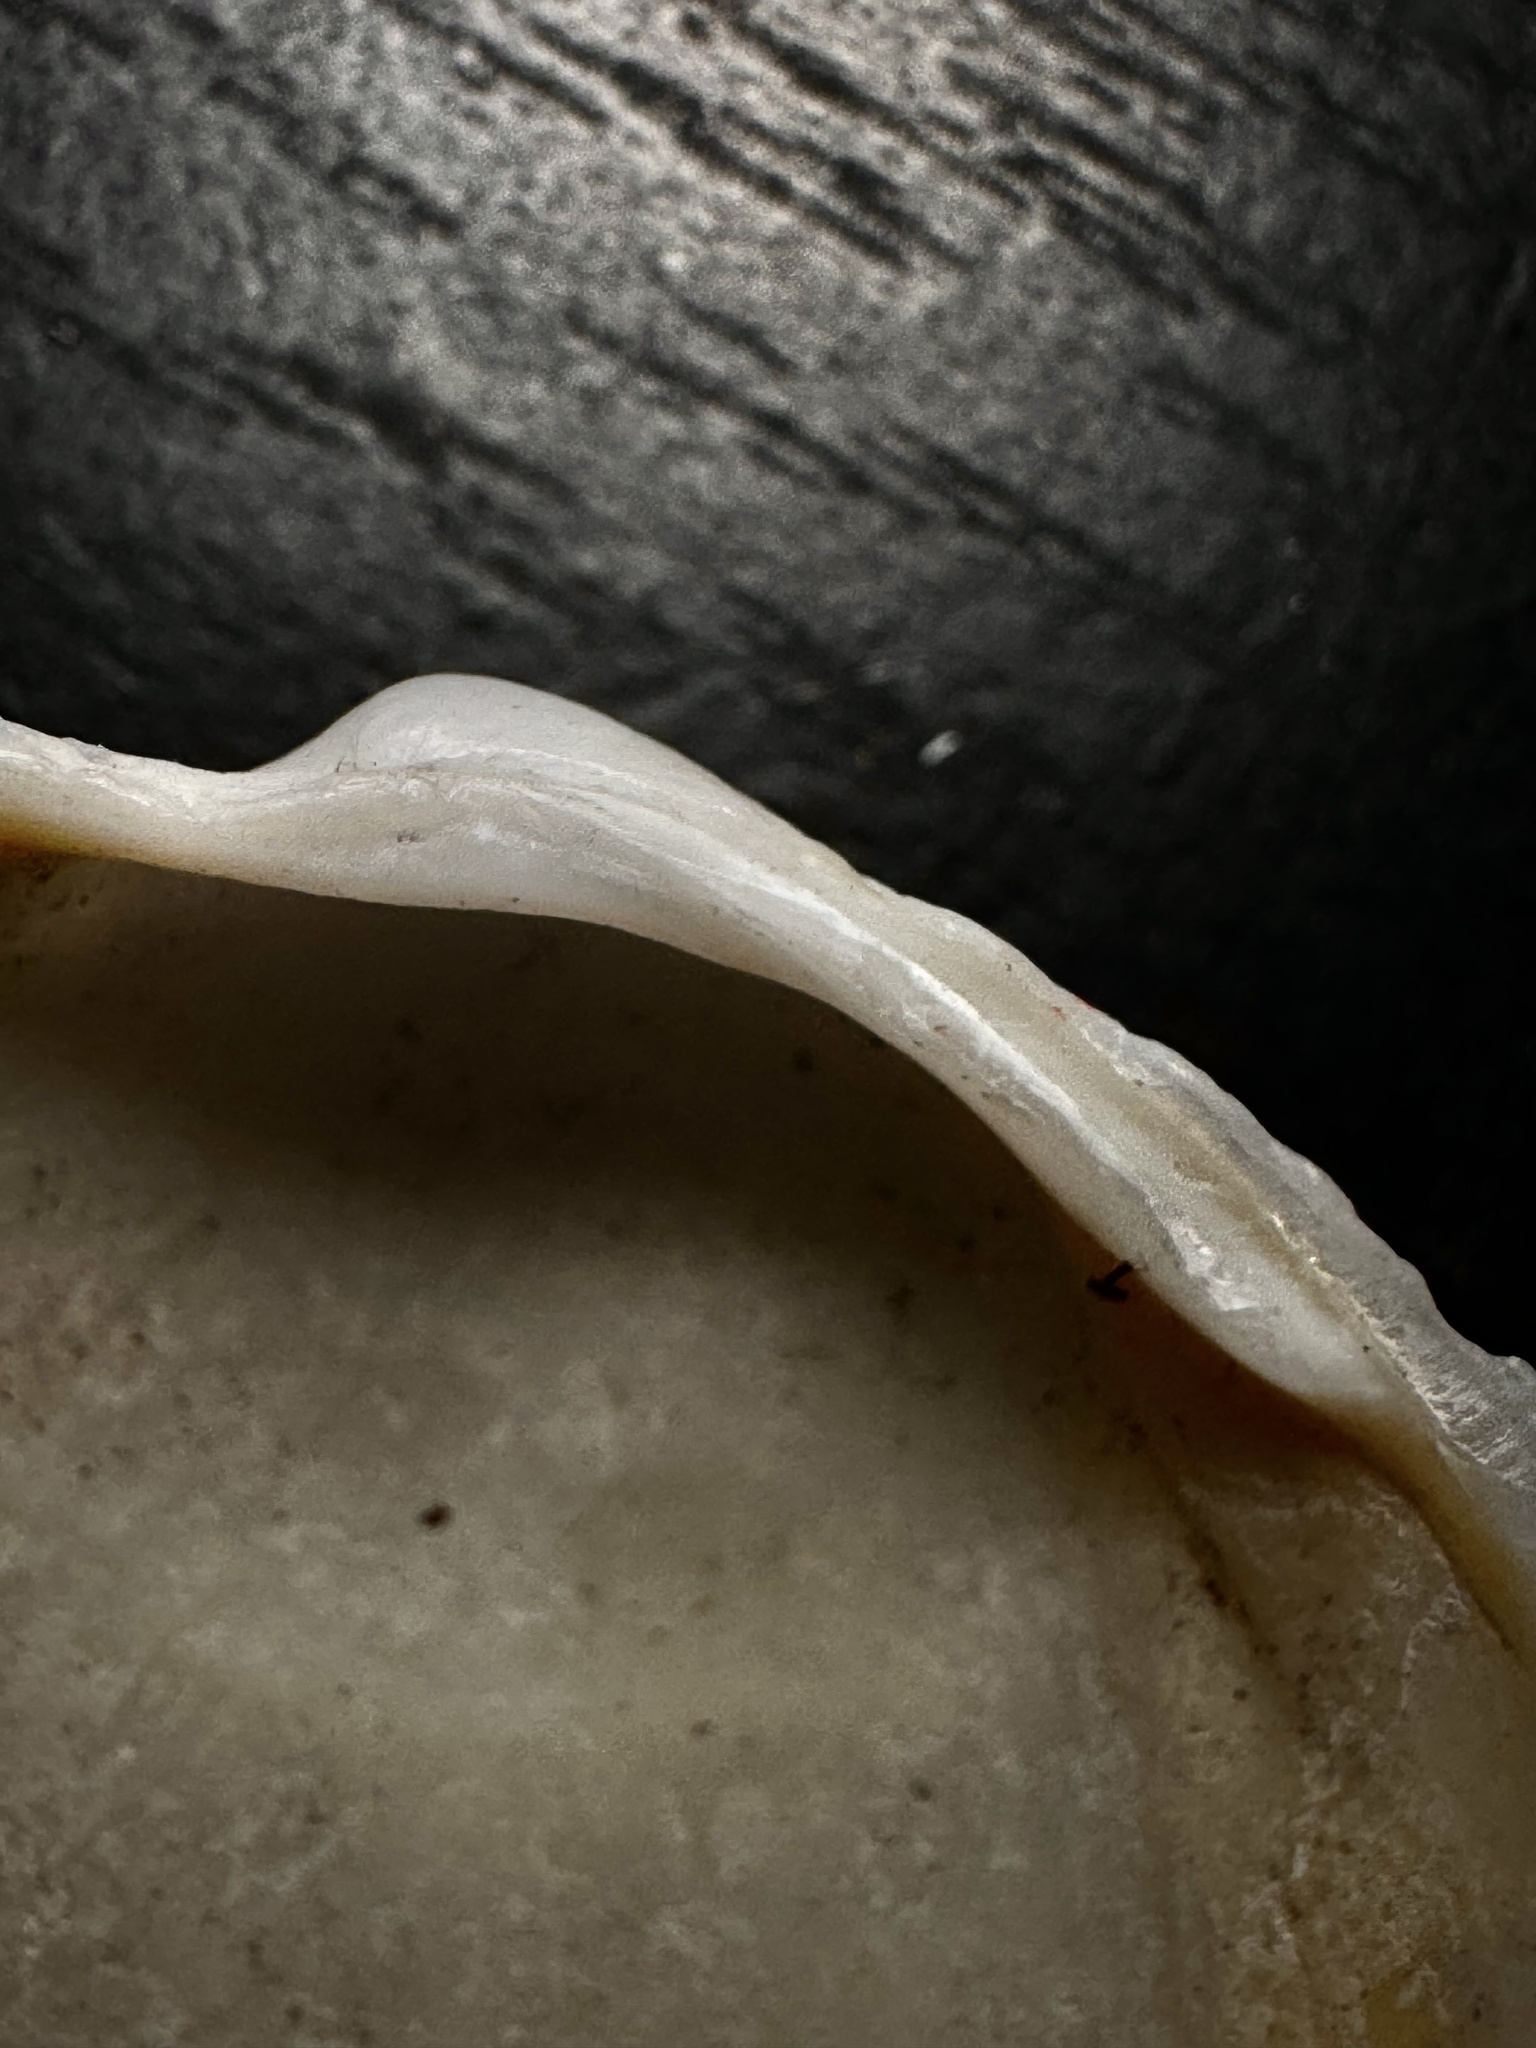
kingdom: Animalia
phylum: Mollusca
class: Bivalvia
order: Lucinida
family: Lucinidae
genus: Anodontia
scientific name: Anodontia alba
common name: Buttercup lucine
